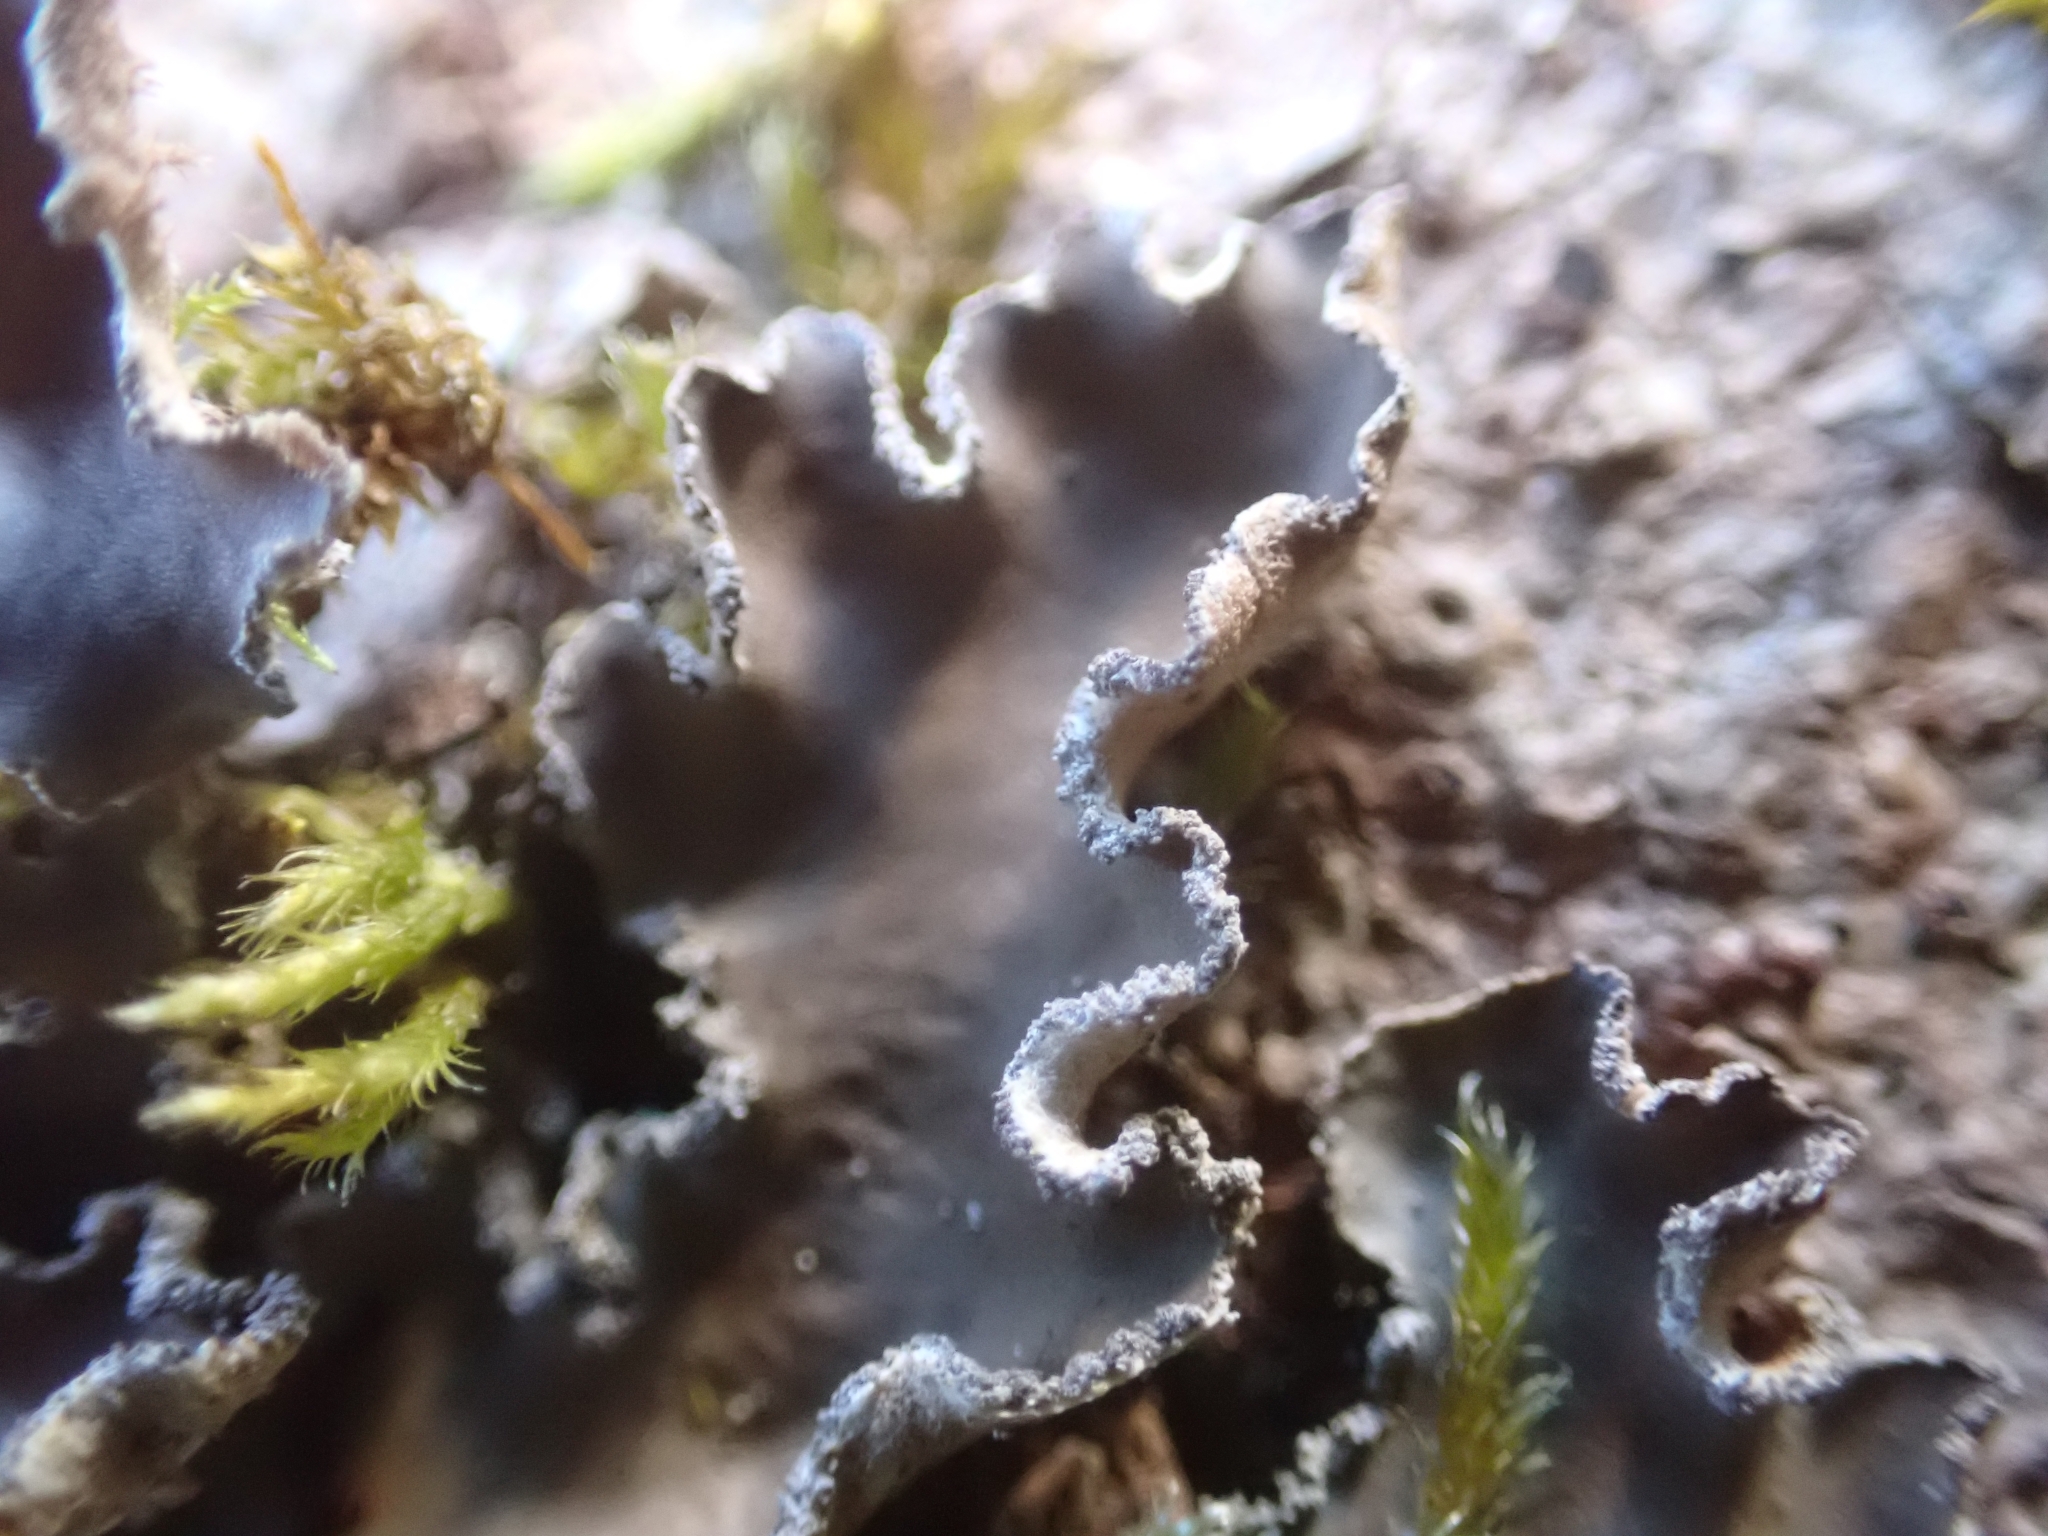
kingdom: Fungi
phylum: Ascomycota
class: Lecanoromycetes
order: Peltigerales
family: Peltigeraceae
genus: Peltigera
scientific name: Peltigera collina
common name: Gritty tree pelt lichen
